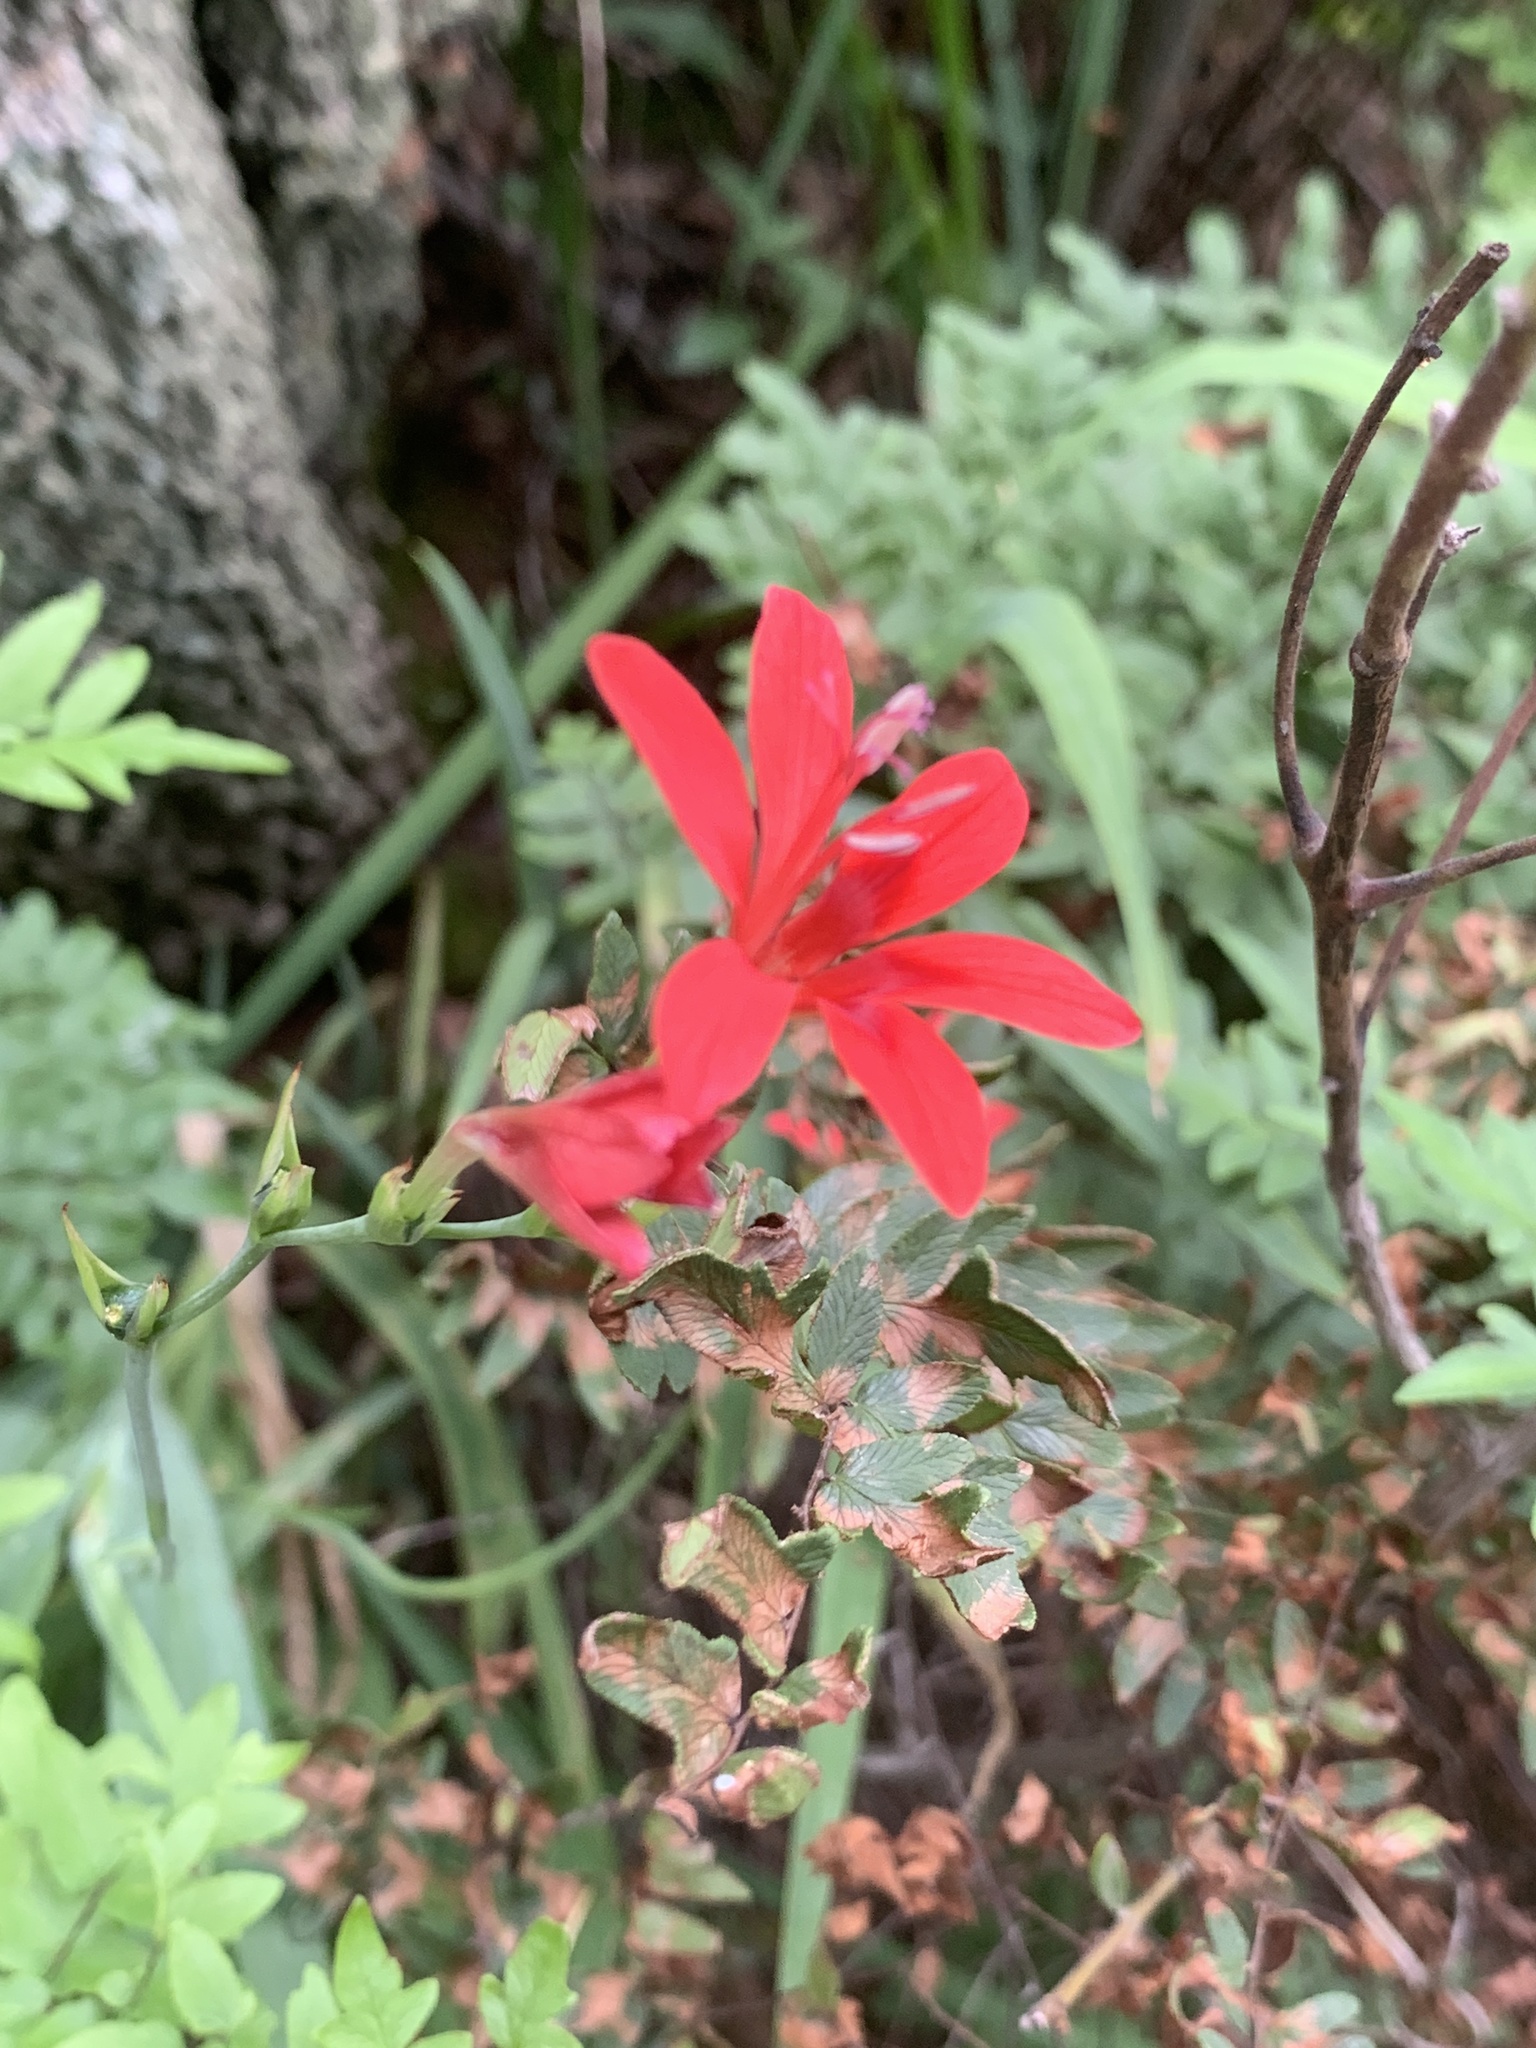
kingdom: Plantae
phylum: Tracheophyta
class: Liliopsida
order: Asparagales
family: Iridaceae
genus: Freesia
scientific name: Freesia grandiflora
